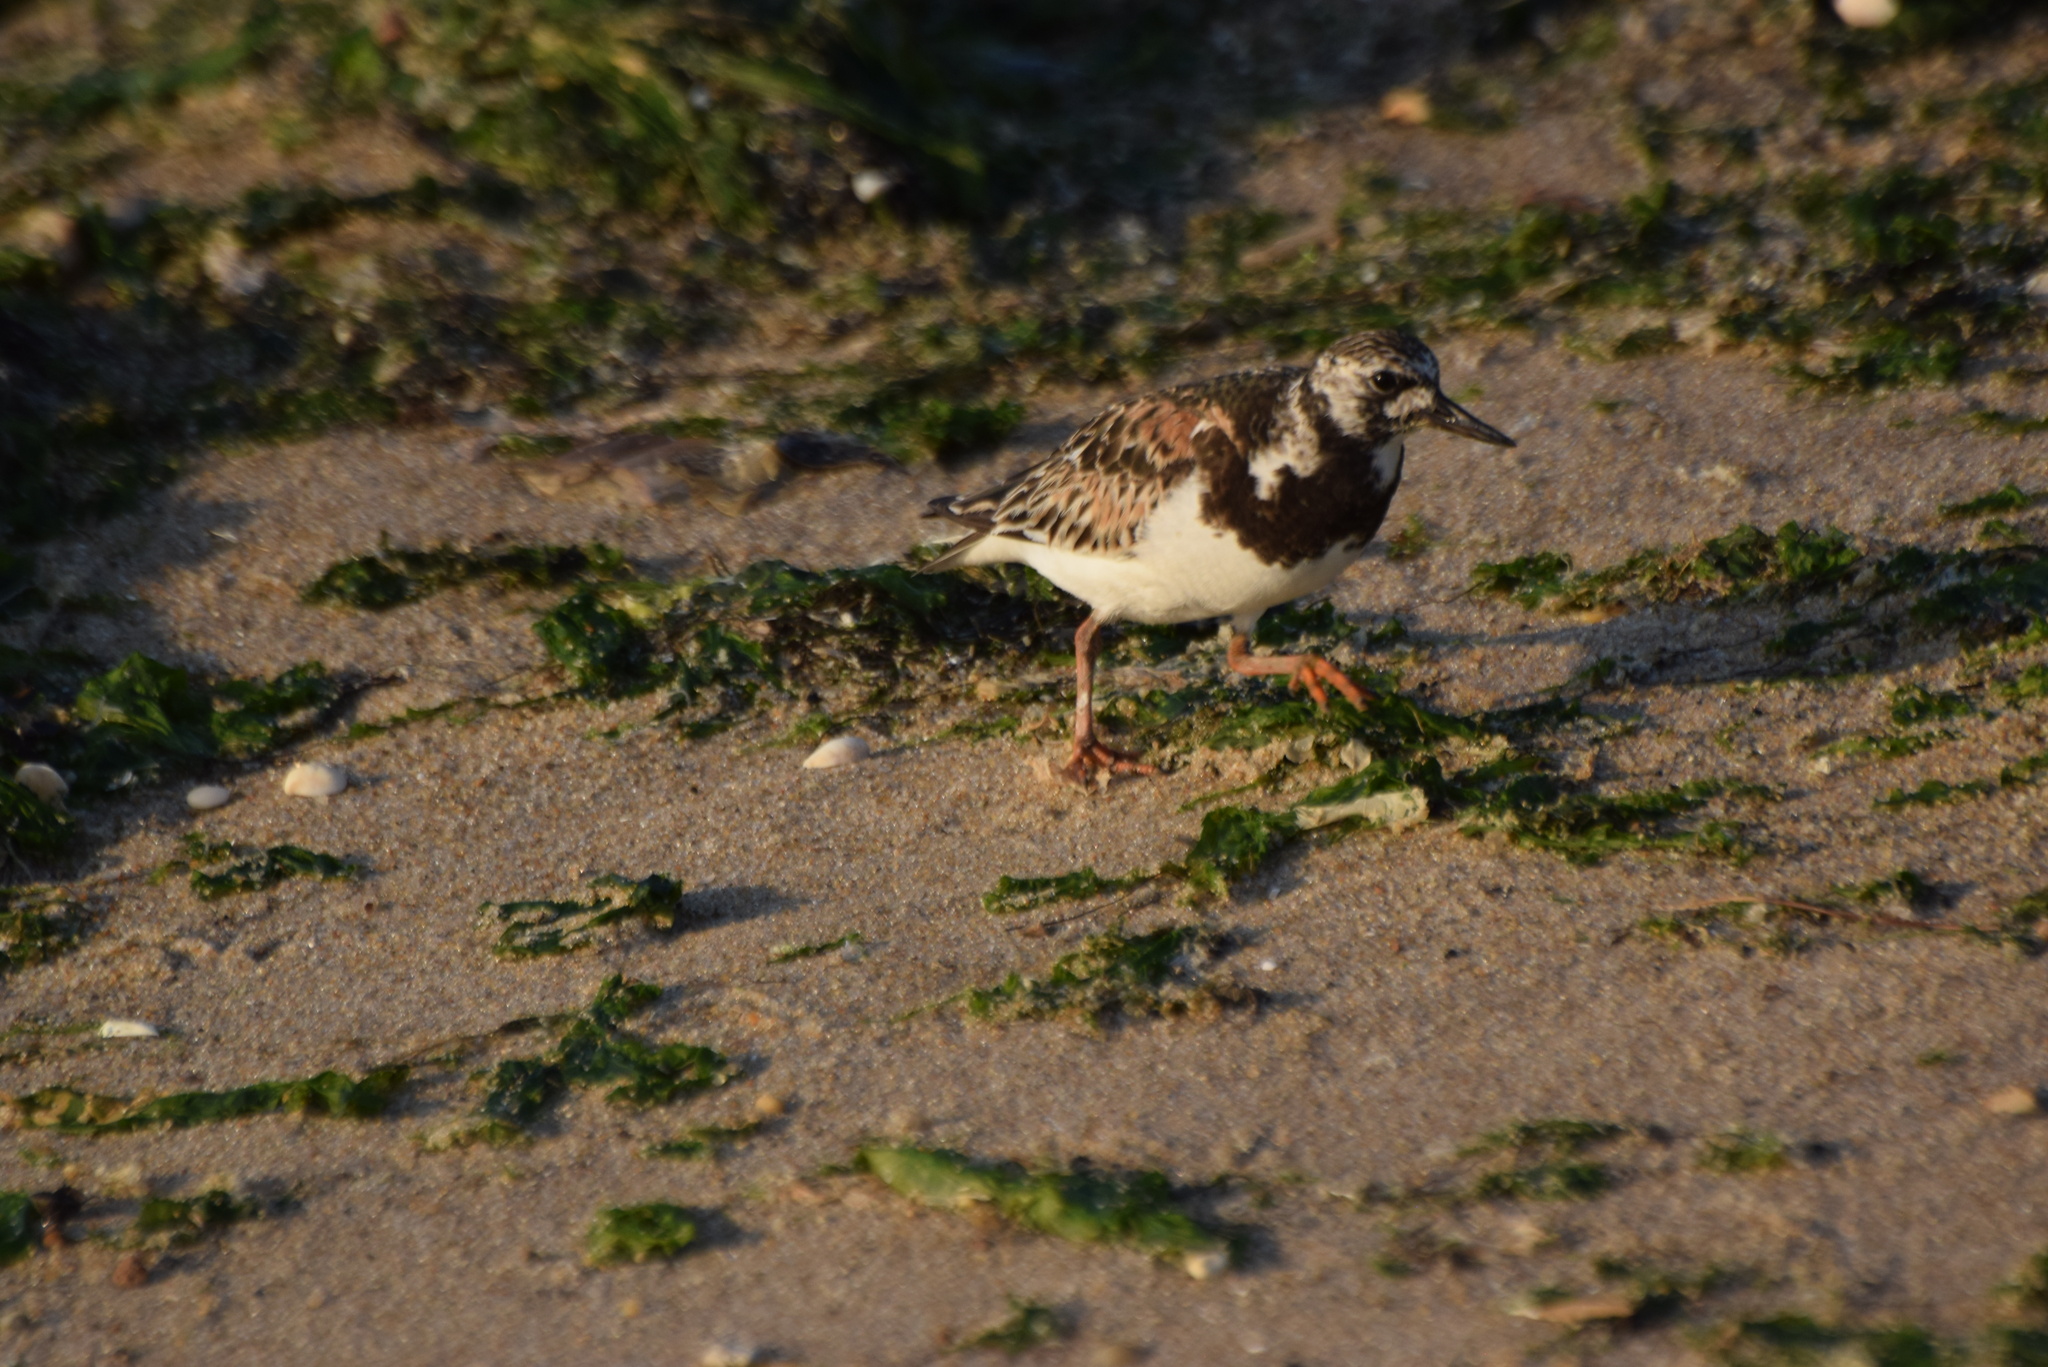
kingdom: Animalia
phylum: Chordata
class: Aves
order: Charadriiformes
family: Scolopacidae
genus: Arenaria
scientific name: Arenaria interpres
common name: Ruddy turnstone
